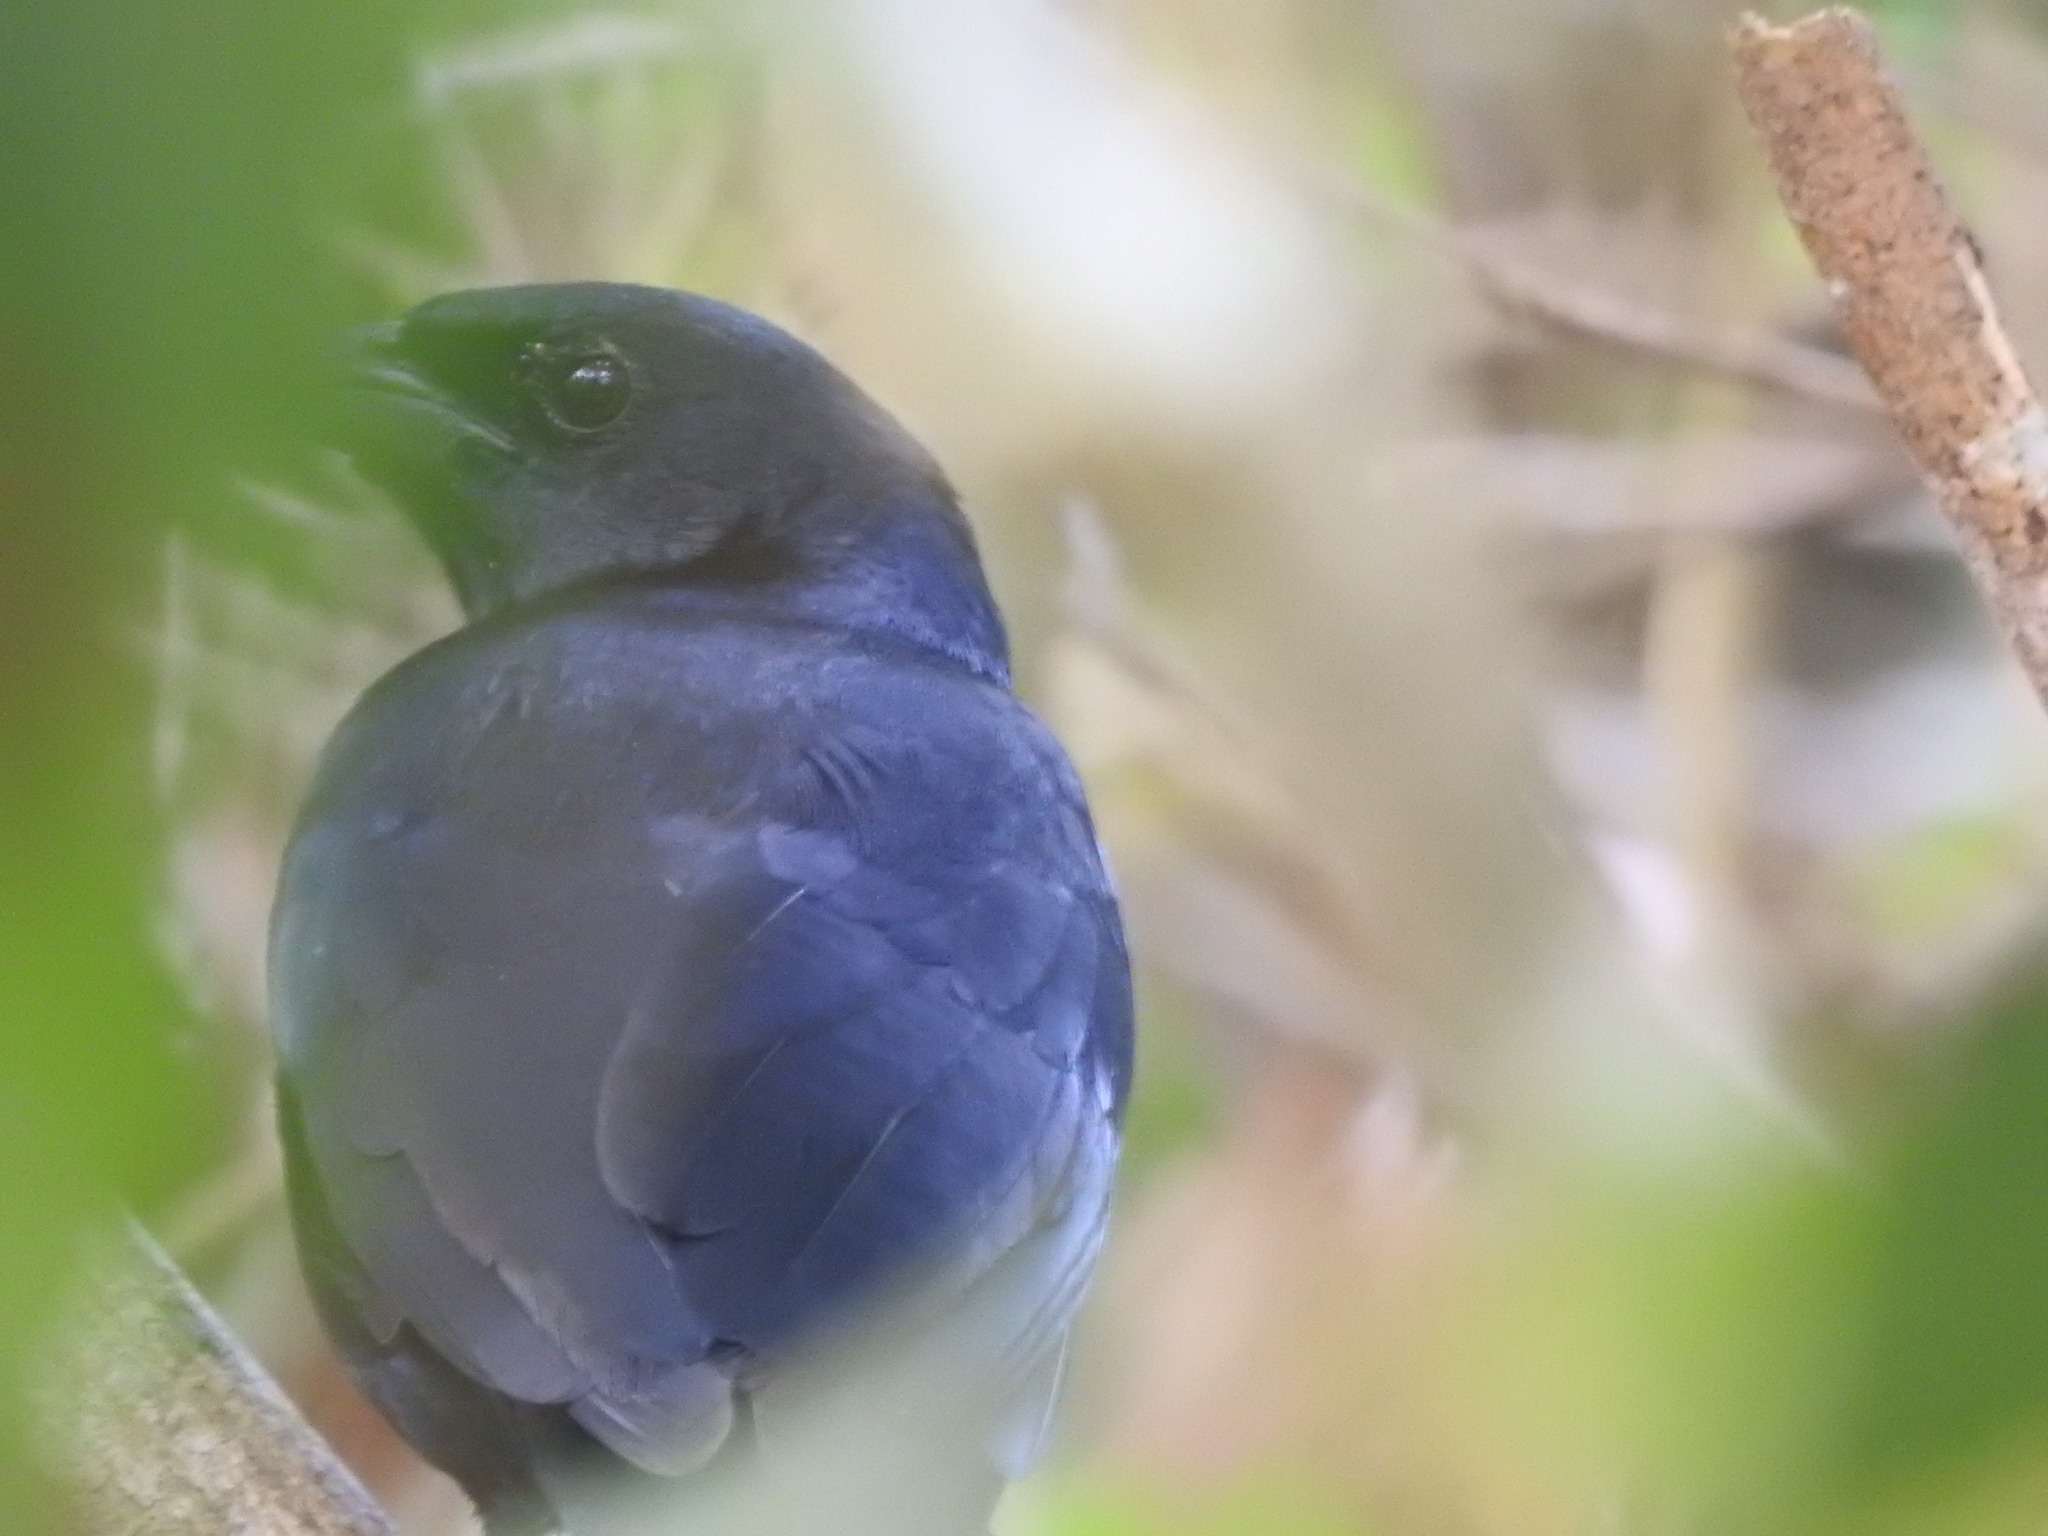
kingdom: Animalia
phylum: Chordata
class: Aves
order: Passeriformes
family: Mimidae
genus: Melanoptila
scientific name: Melanoptila glabrirostris
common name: Black catbird
